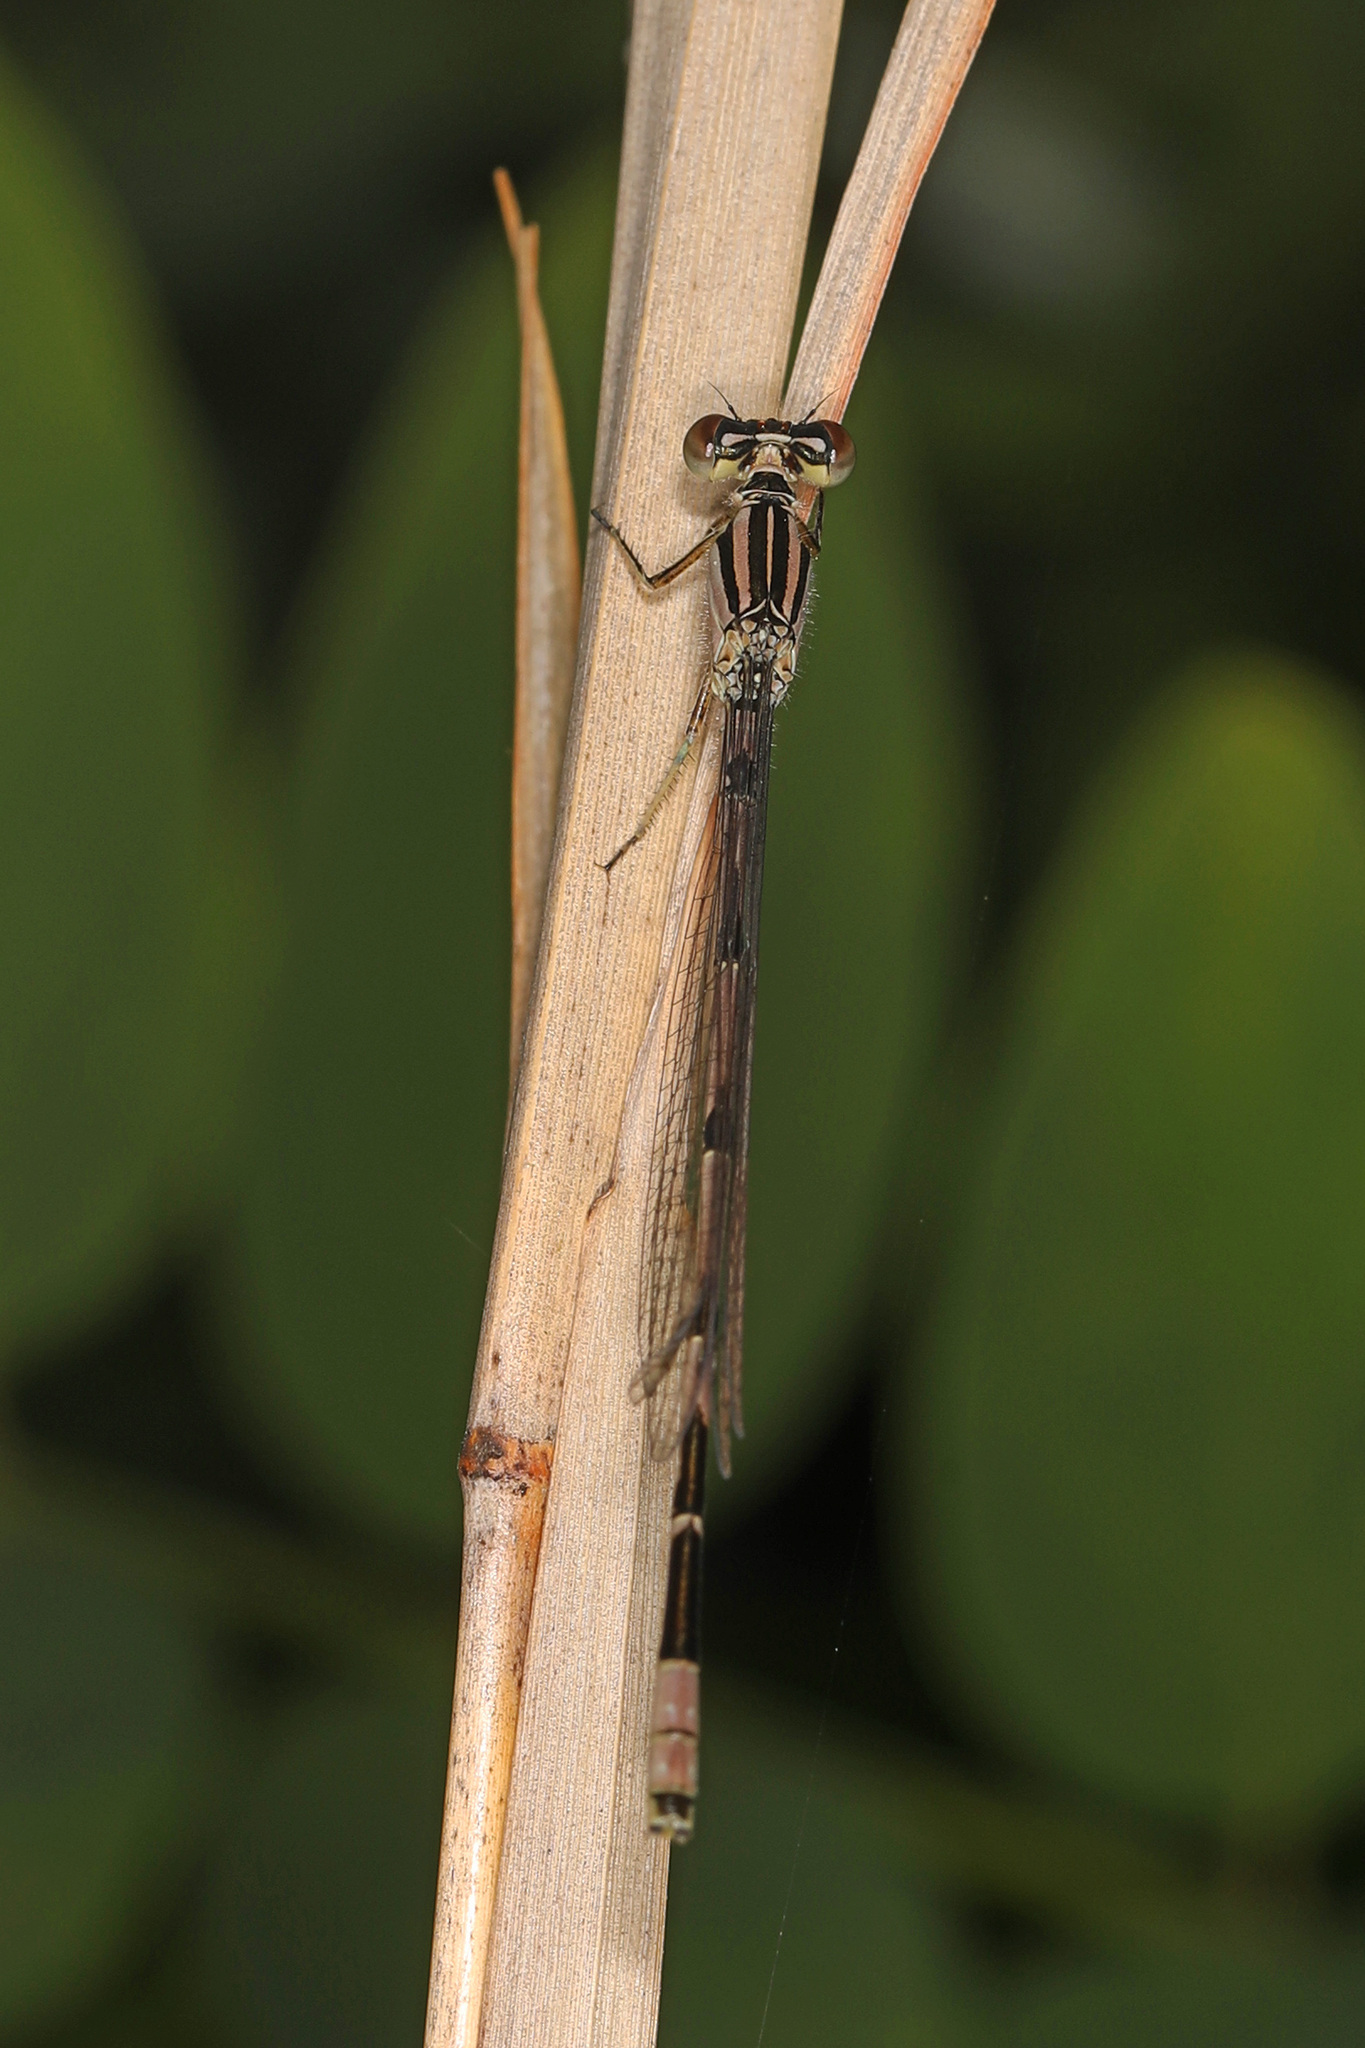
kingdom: Animalia
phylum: Arthropoda
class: Insecta
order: Odonata
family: Coenagrionidae
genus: Enallagma
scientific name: Enallagma durum
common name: Big bluet
